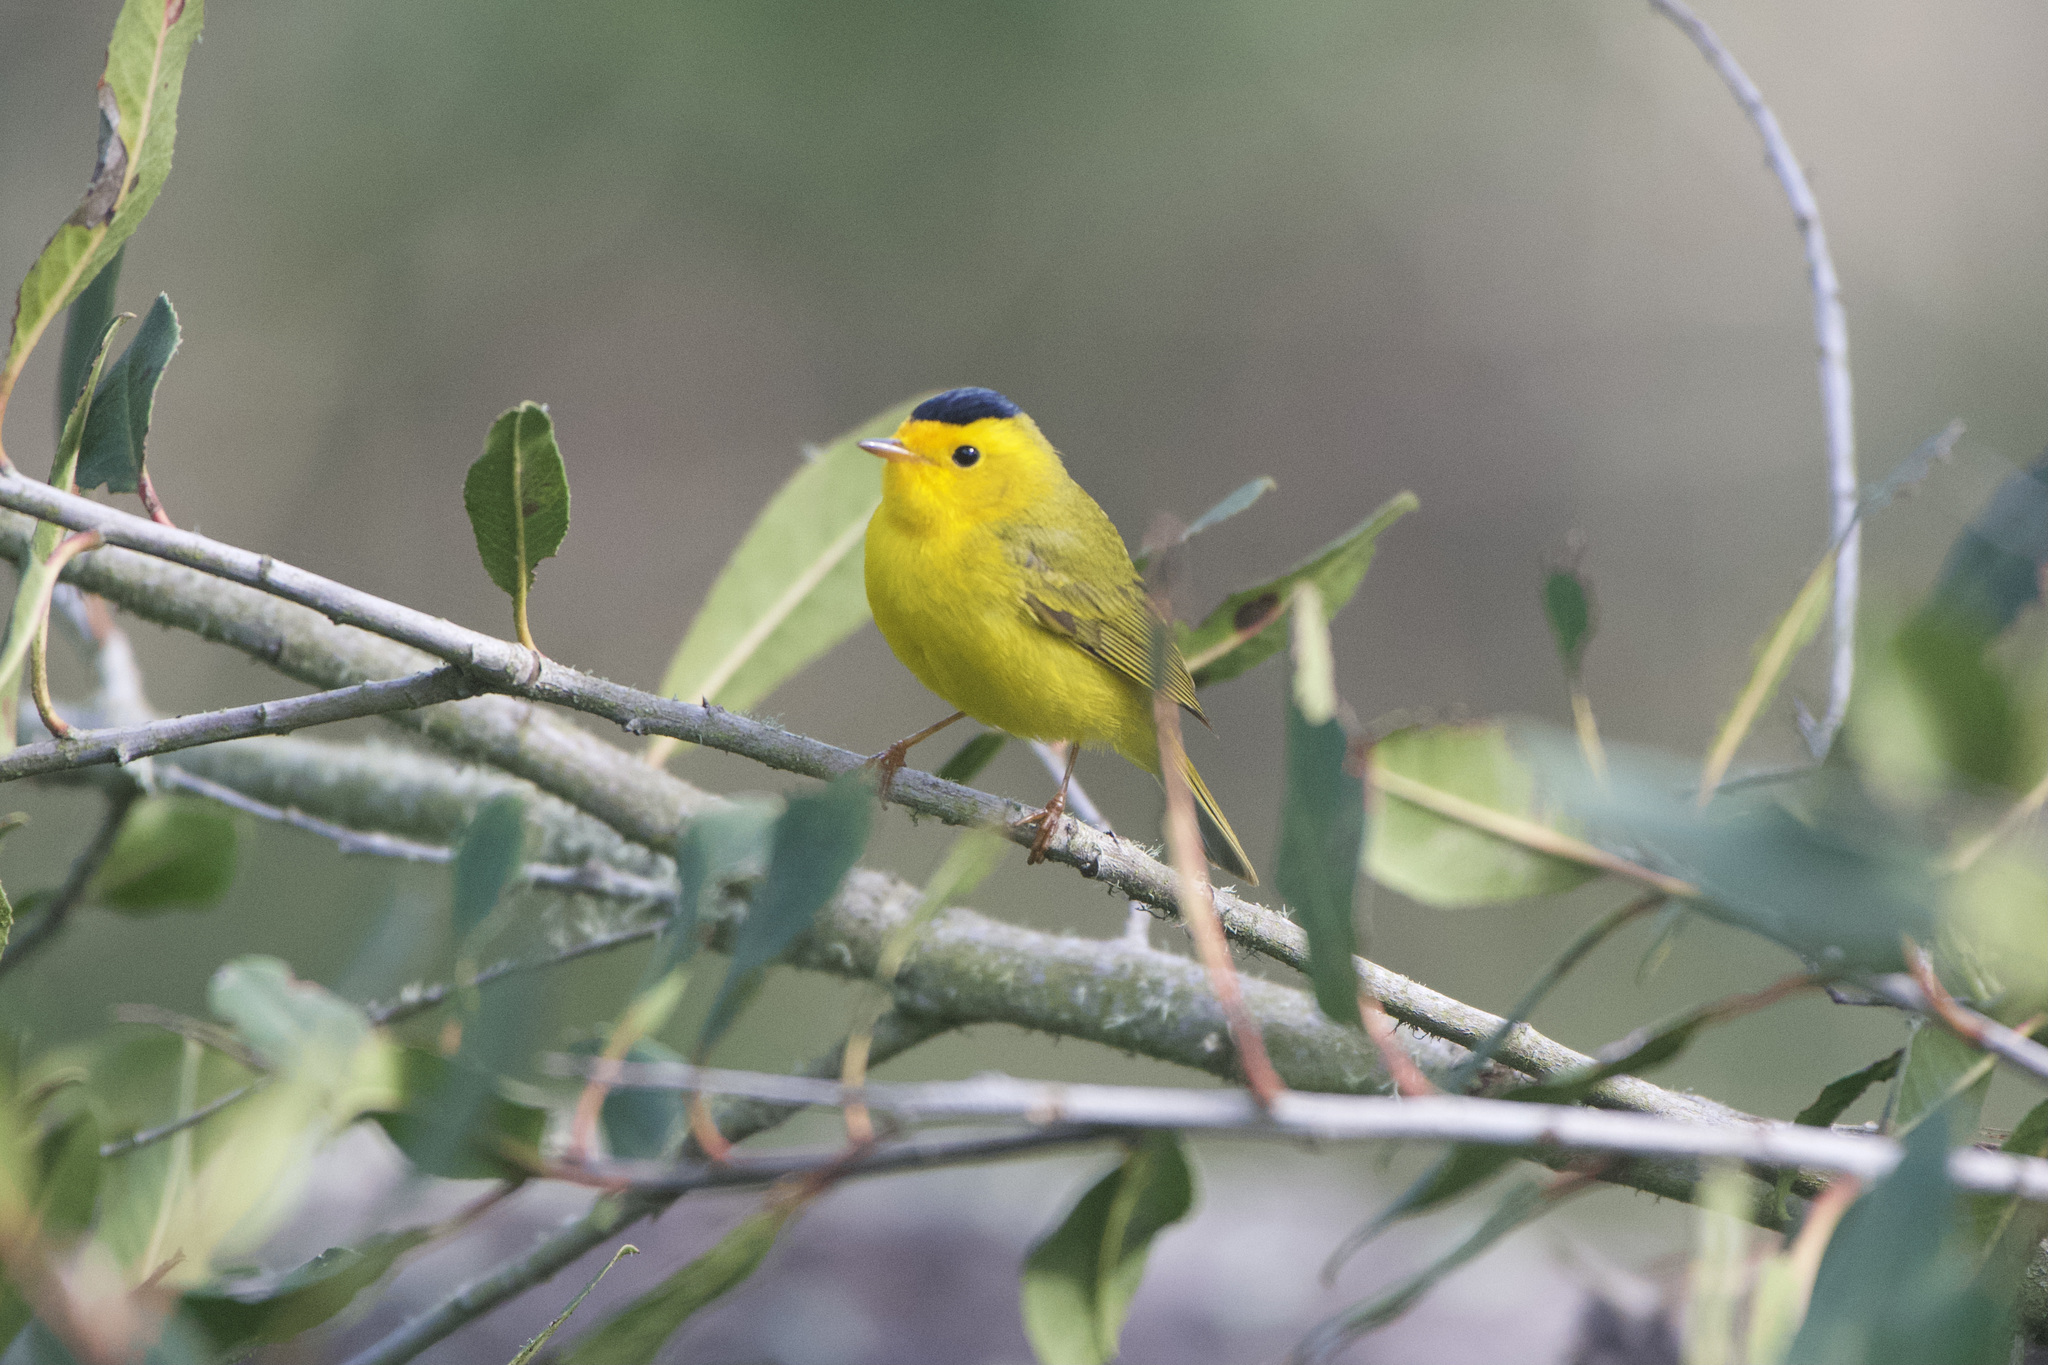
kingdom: Animalia
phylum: Chordata
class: Aves
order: Passeriformes
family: Parulidae
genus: Cardellina
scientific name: Cardellina pusilla
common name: Wilson's warbler
